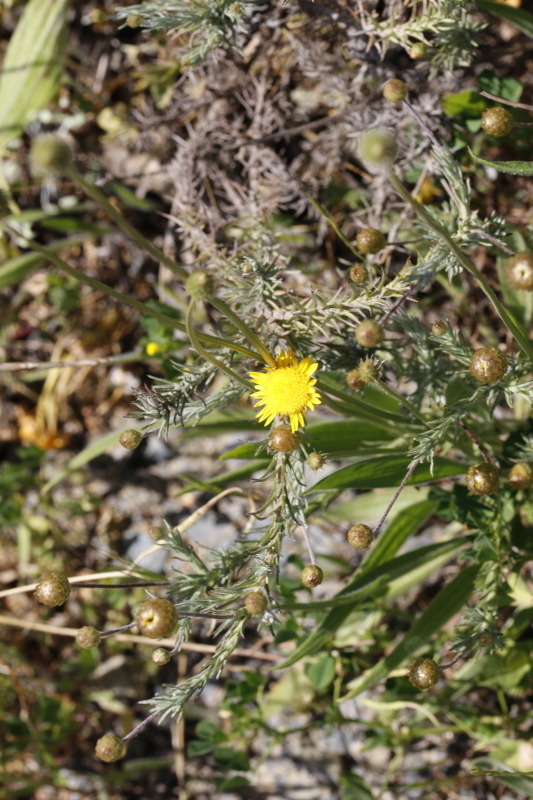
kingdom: Plantae
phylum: Tracheophyta
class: Magnoliopsida
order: Asterales
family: Asteraceae
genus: Leysera
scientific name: Leysera gnaphalodes
